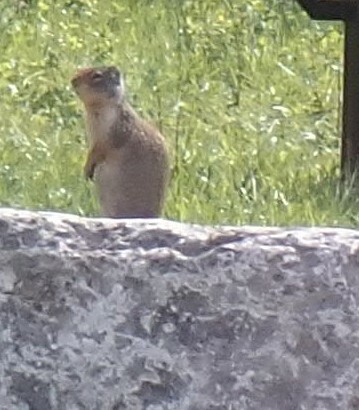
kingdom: Animalia
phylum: Chordata
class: Mammalia
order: Rodentia
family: Sciuridae
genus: Urocitellus
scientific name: Urocitellus columbianus
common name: Columbian ground squirrel
